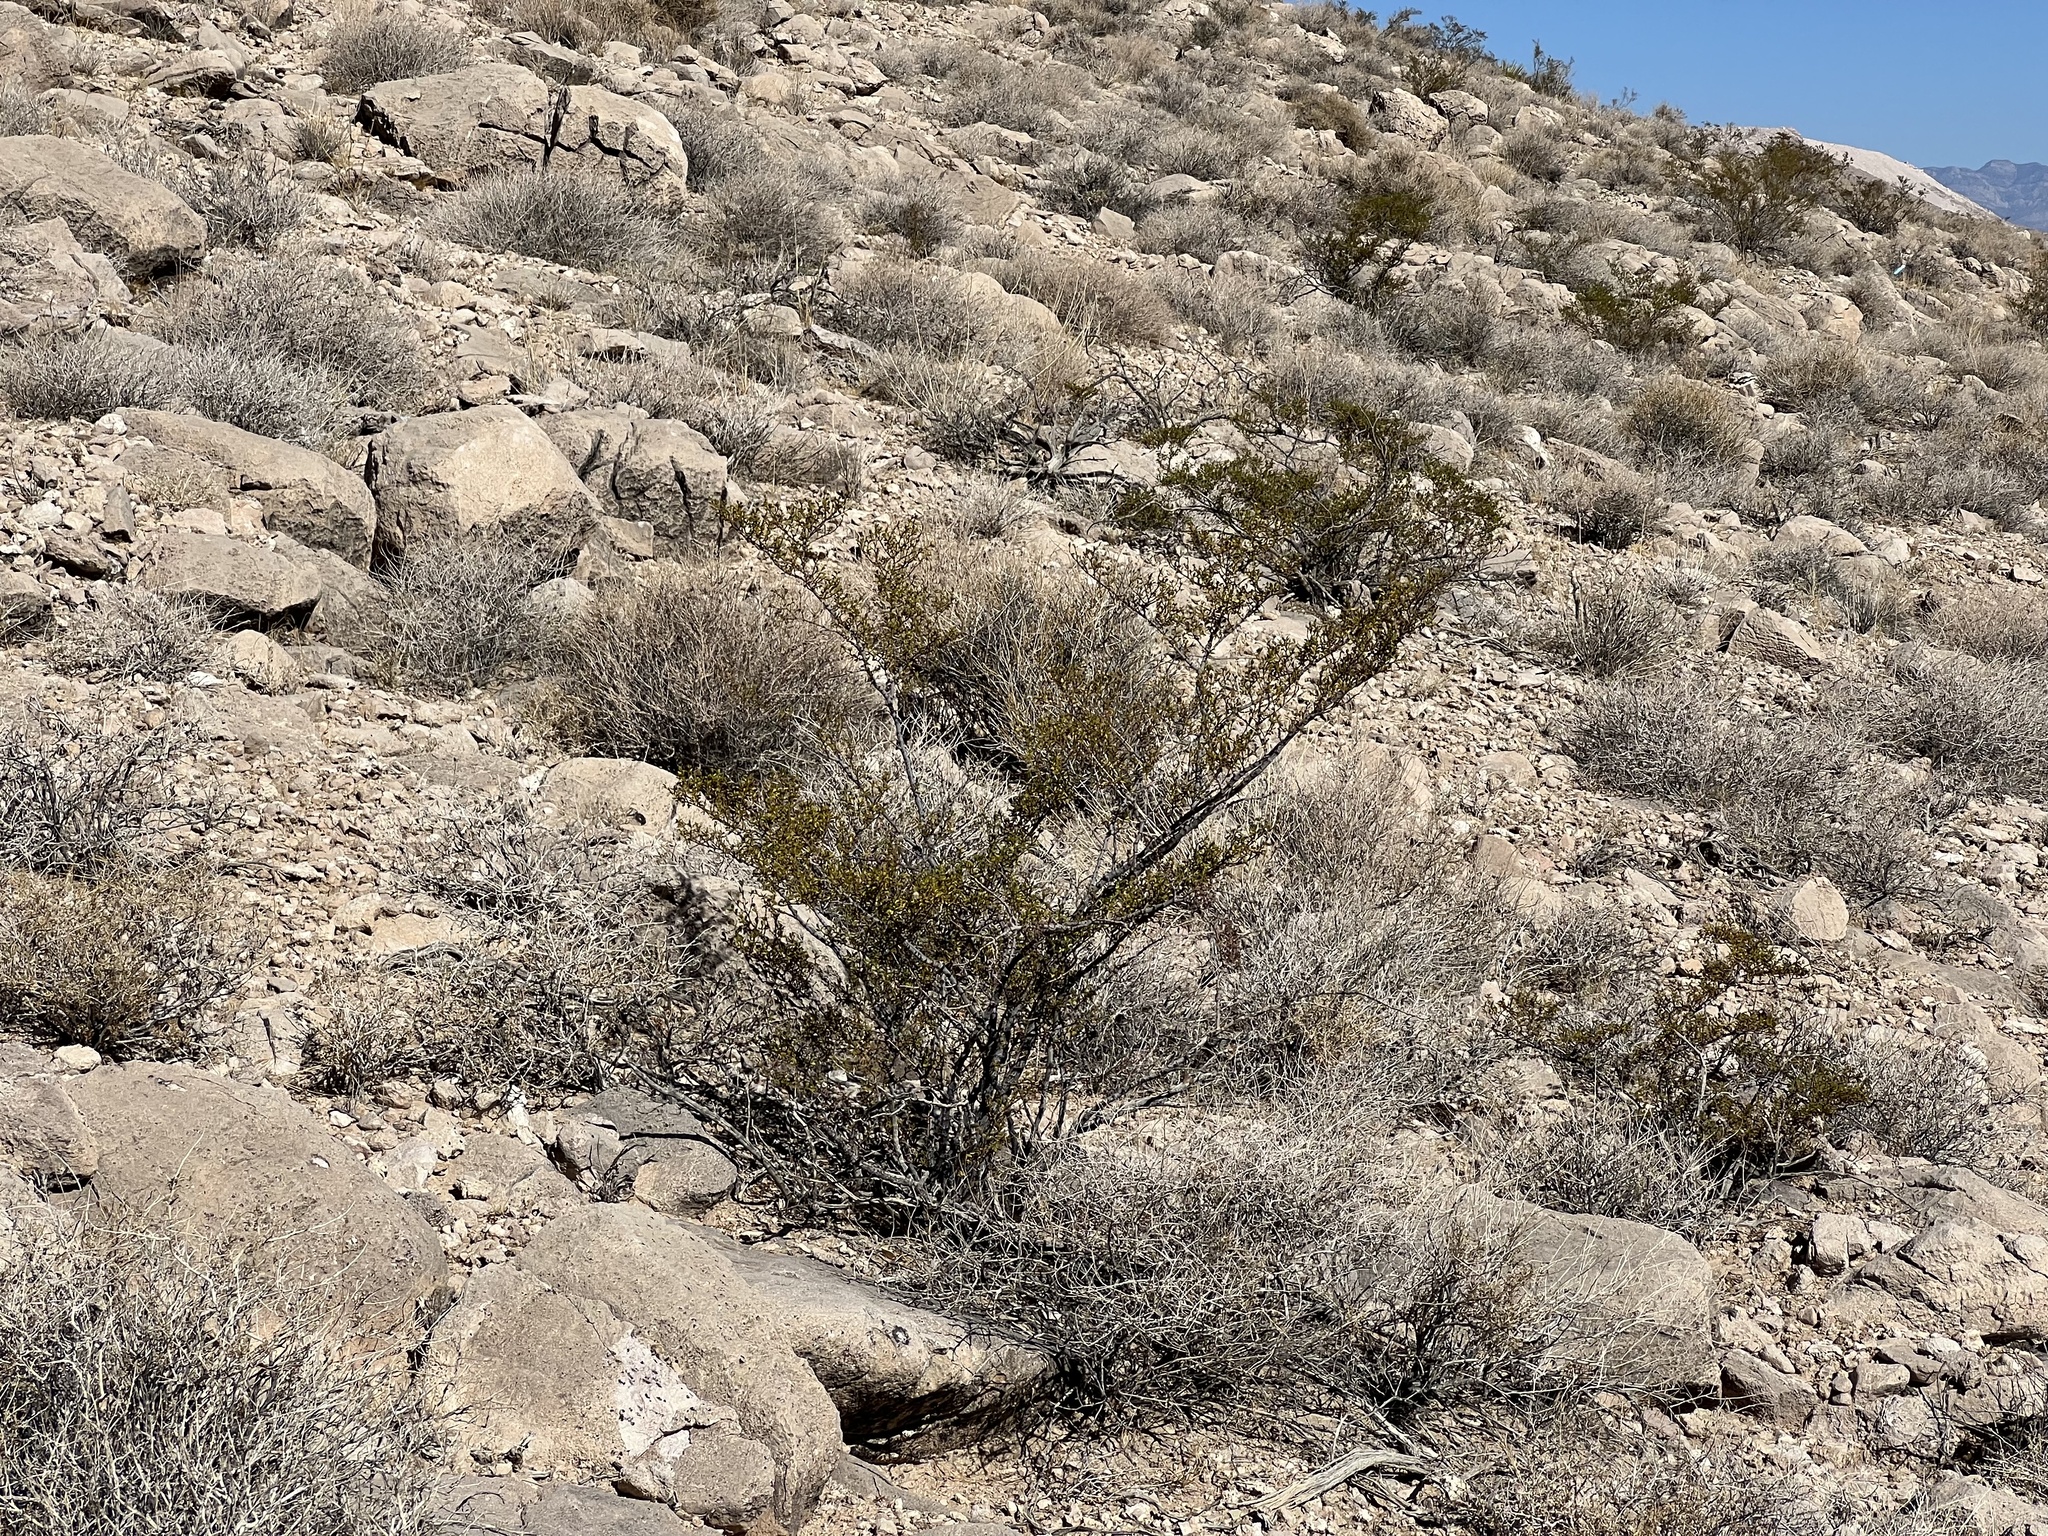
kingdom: Plantae
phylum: Tracheophyta
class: Magnoliopsida
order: Zygophyllales
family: Zygophyllaceae
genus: Larrea
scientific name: Larrea tridentata
